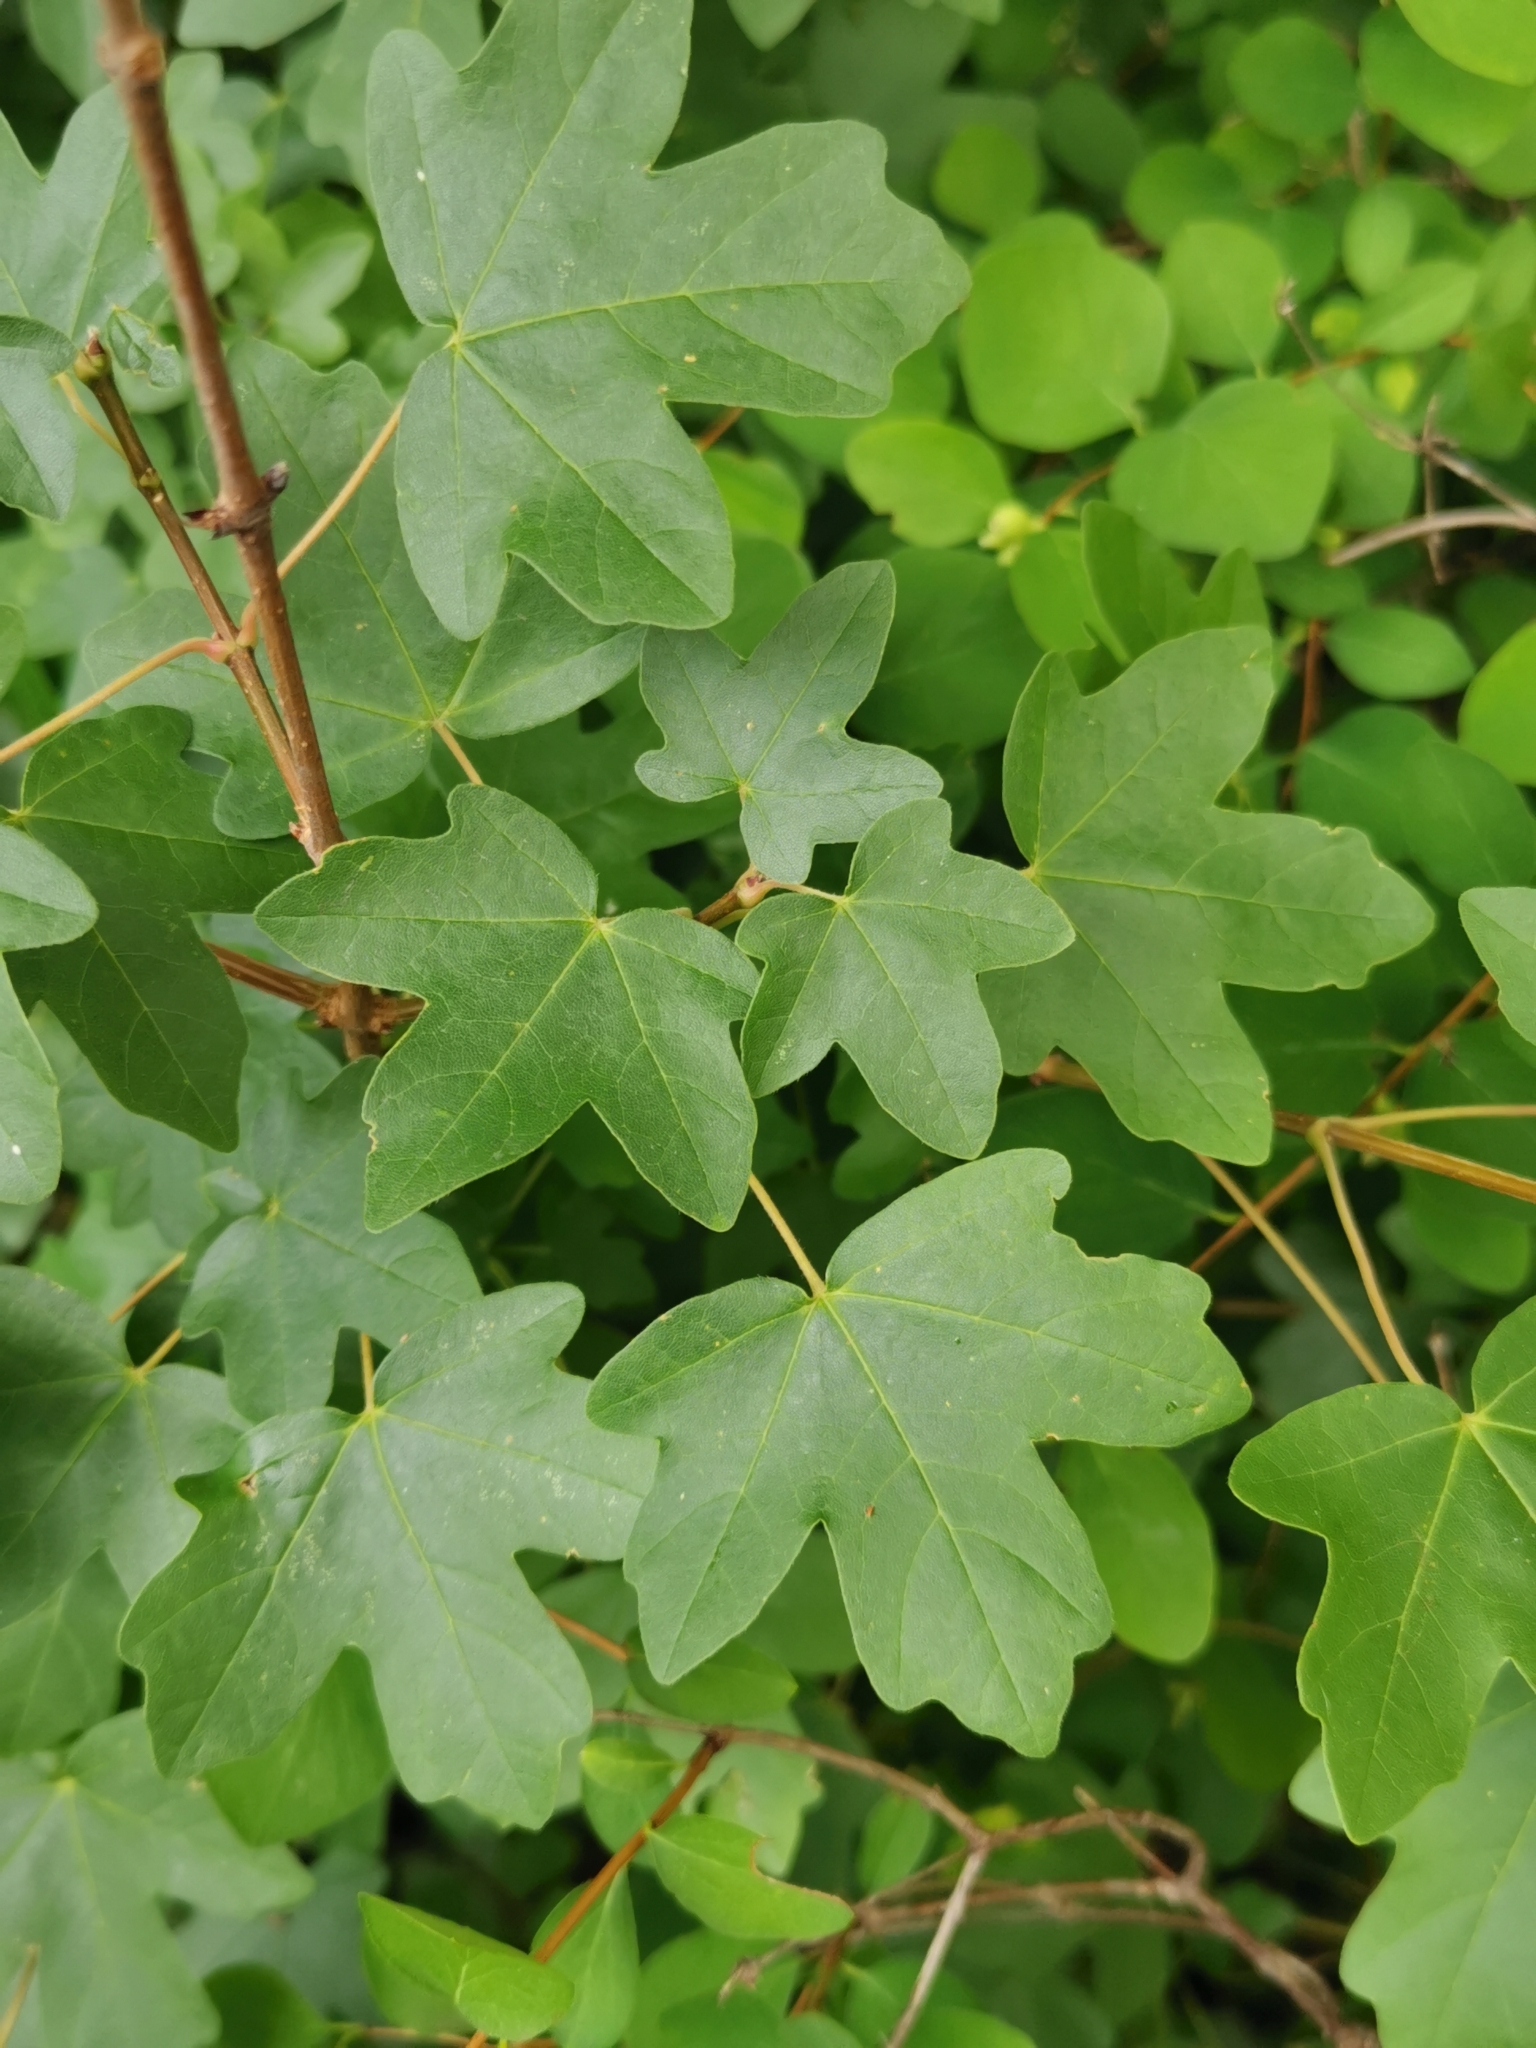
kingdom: Plantae
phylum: Tracheophyta
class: Magnoliopsida
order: Sapindales
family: Sapindaceae
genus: Acer
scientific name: Acer campestre
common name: Field maple
